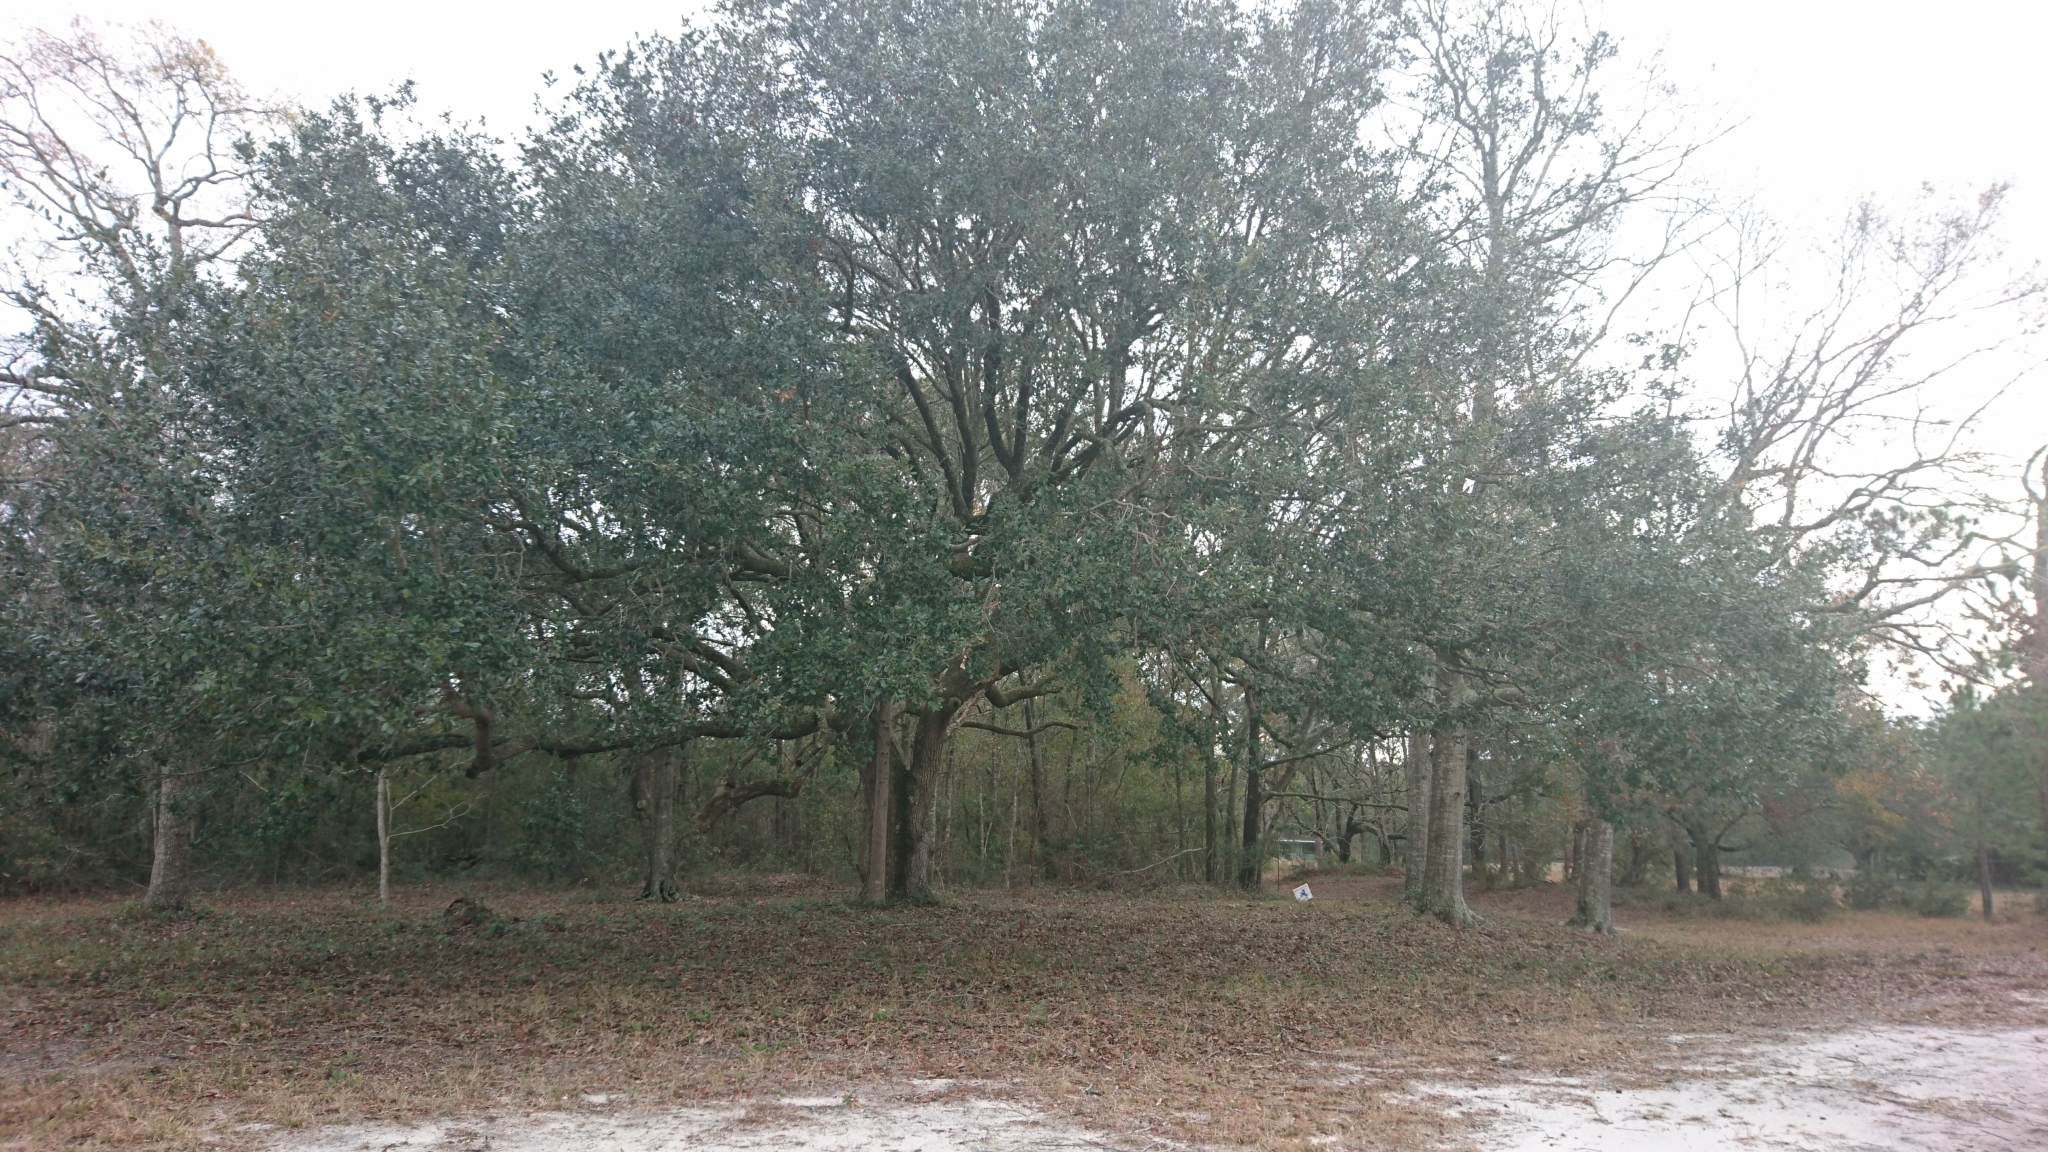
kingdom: Plantae
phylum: Tracheophyta
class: Magnoliopsida
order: Fagales
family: Fagaceae
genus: Quercus
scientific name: Quercus virginiana
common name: Southern live oak
